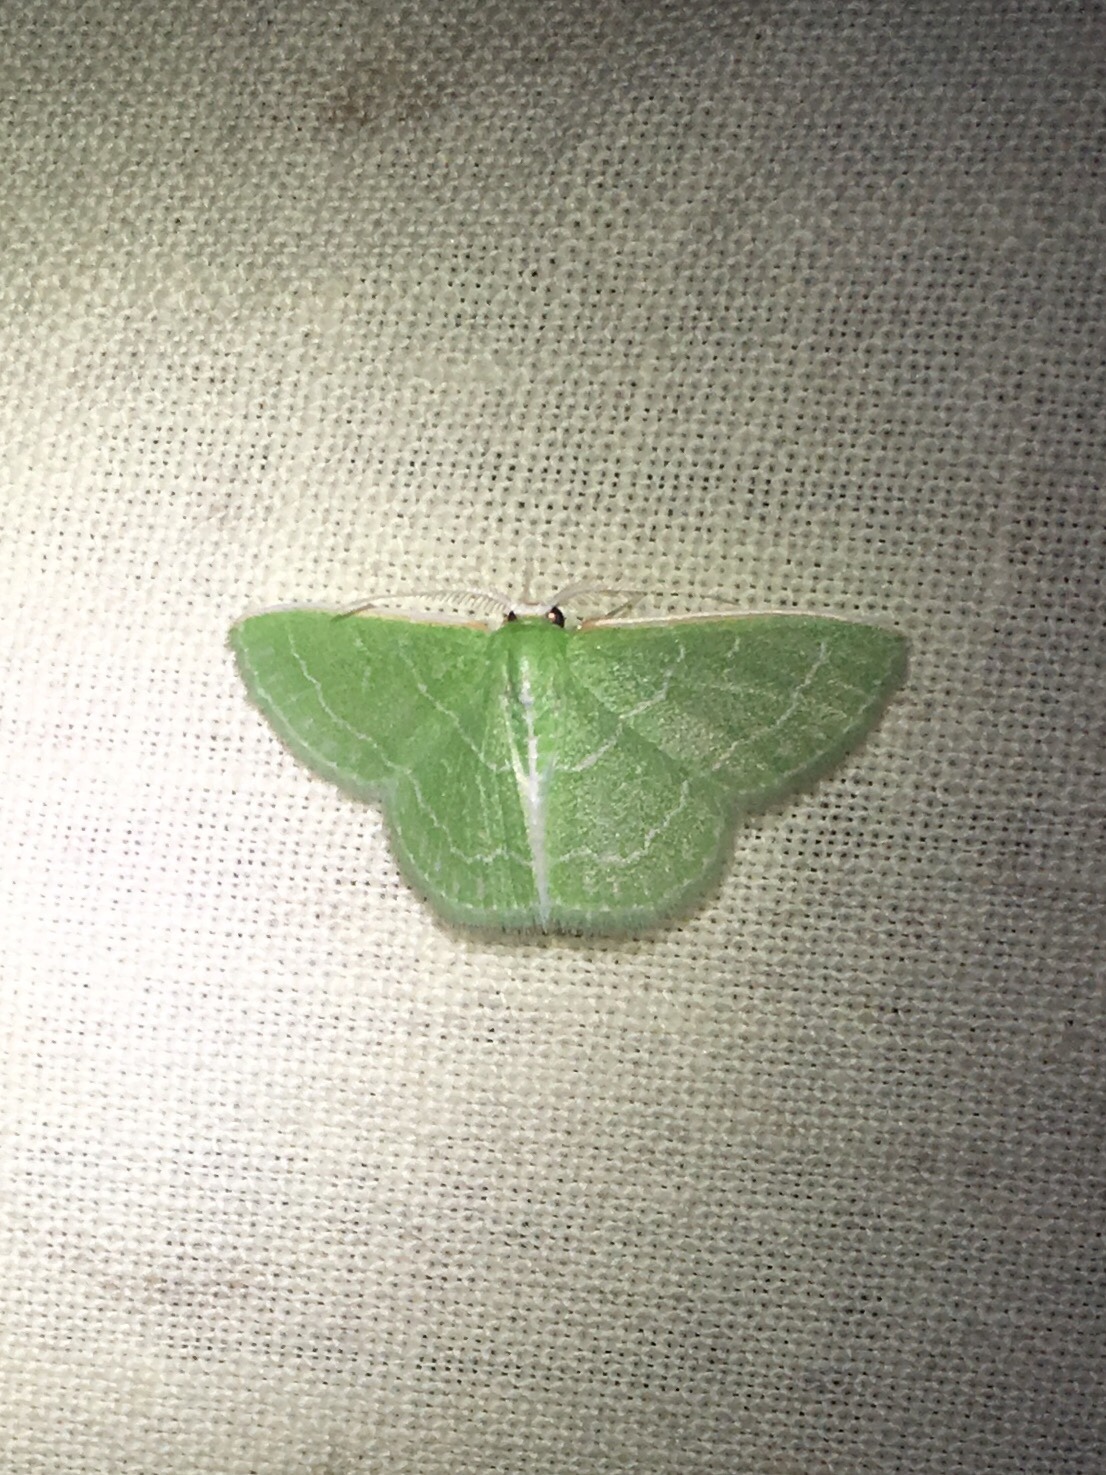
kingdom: Animalia
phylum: Arthropoda
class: Insecta
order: Lepidoptera
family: Geometridae
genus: Synchlora
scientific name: Synchlora aerata
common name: Wavy-lined emerald
